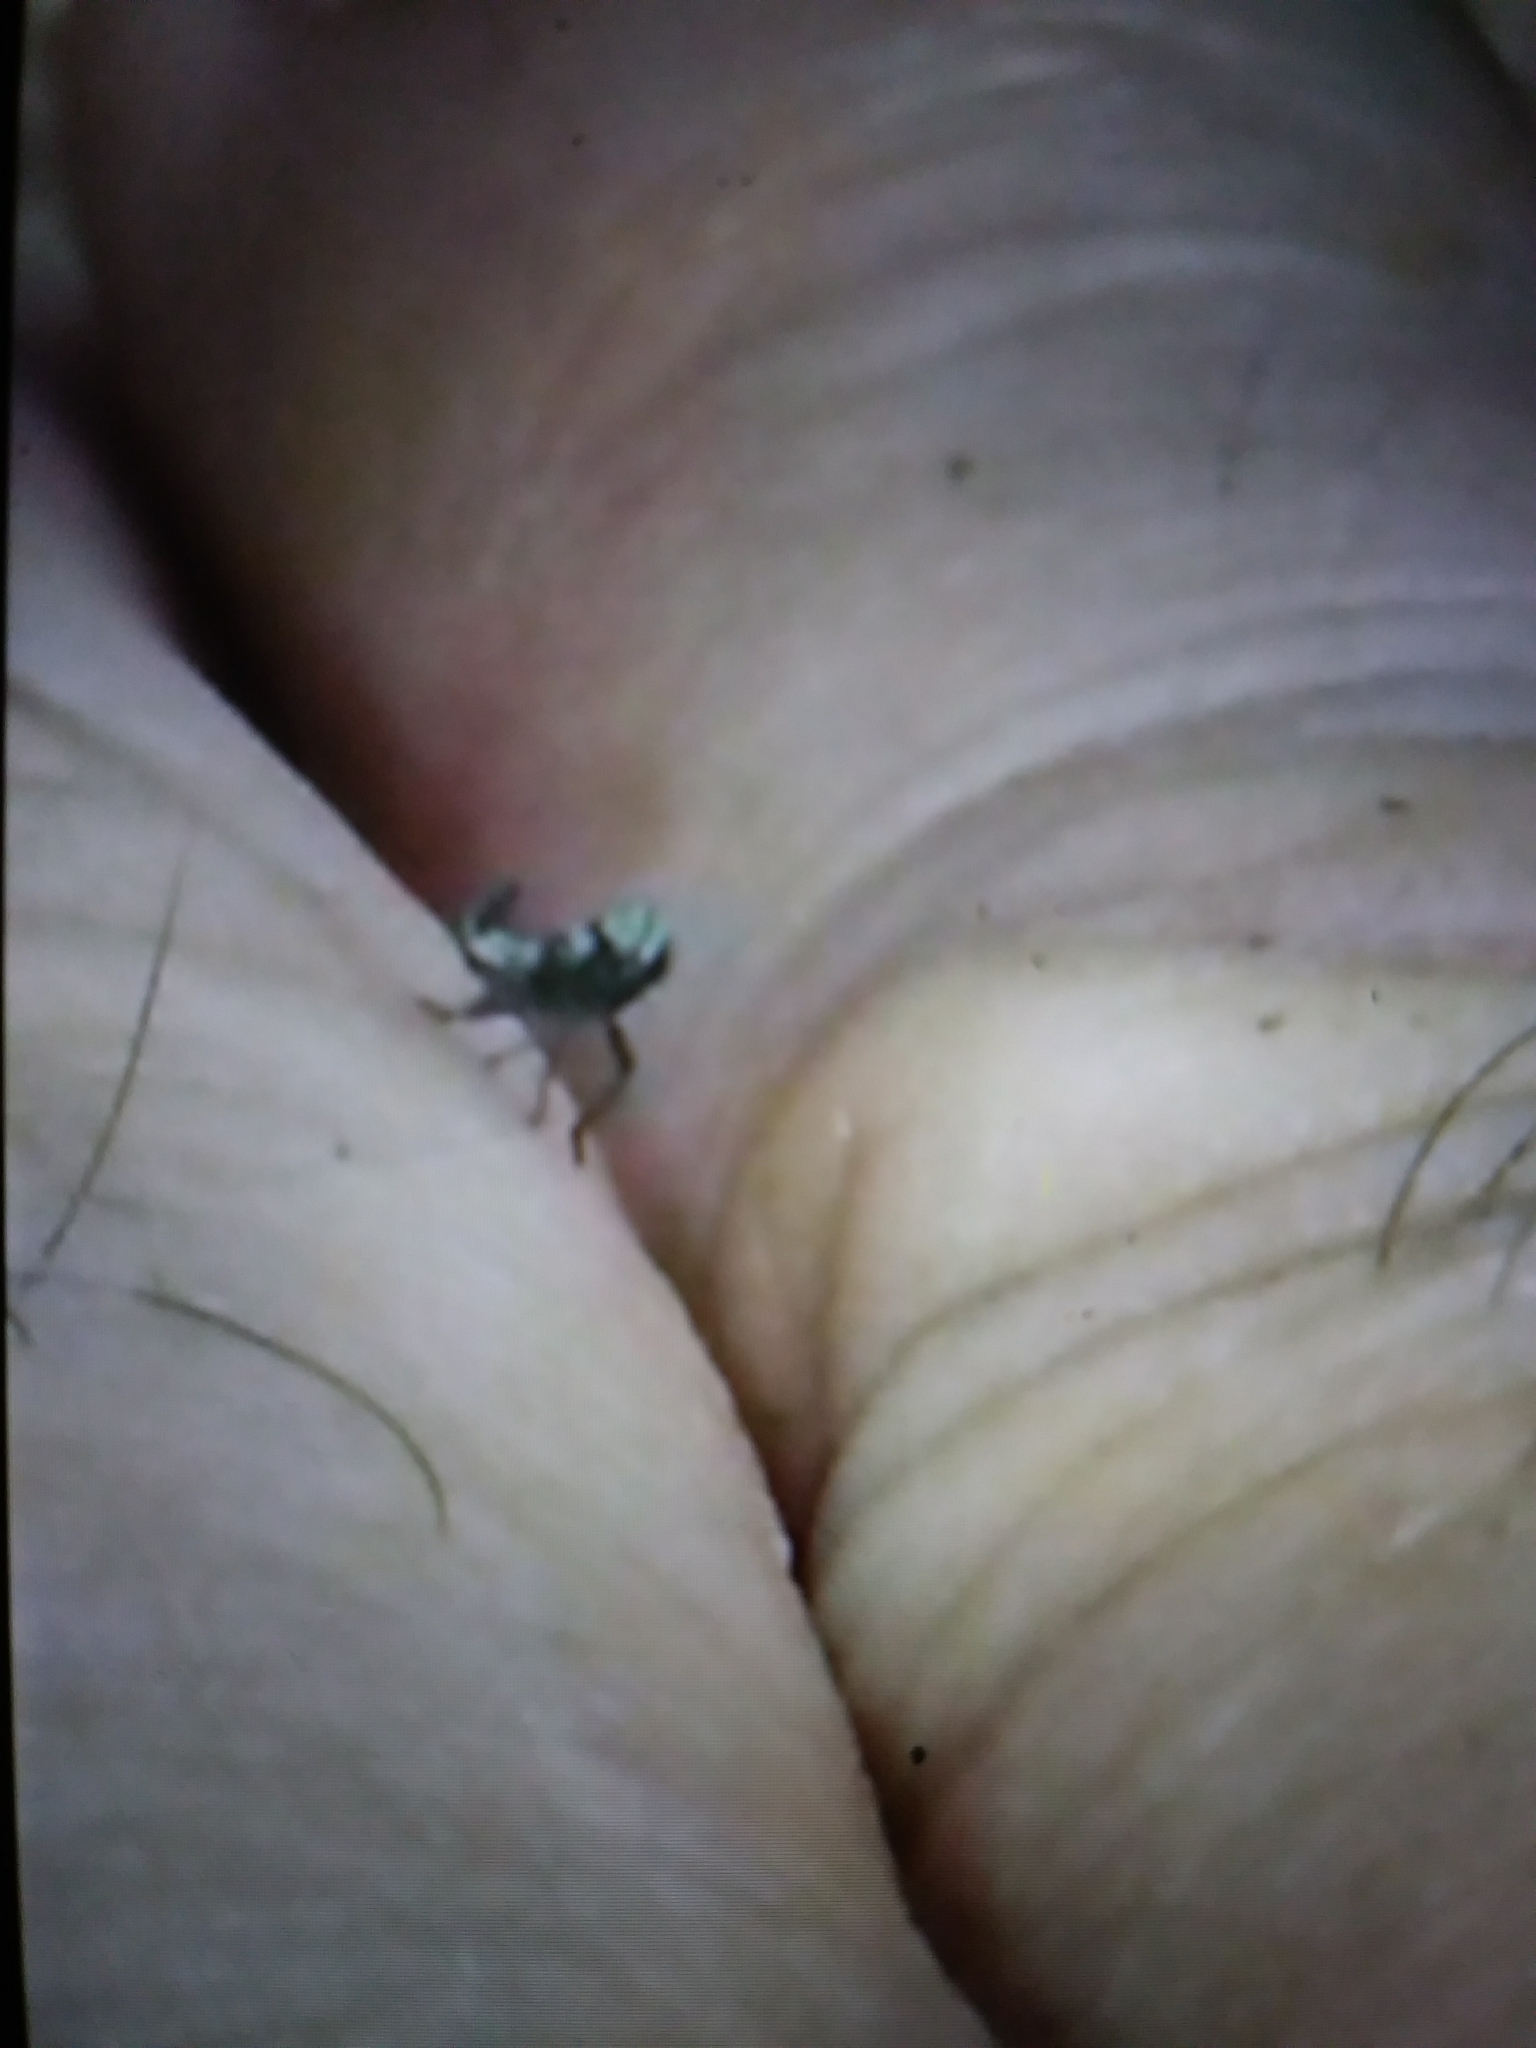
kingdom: Animalia
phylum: Arthropoda
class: Insecta
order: Hemiptera
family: Cicadellidae
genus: Jikradia
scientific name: Jikradia olitoria
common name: Coppery leafhopper
